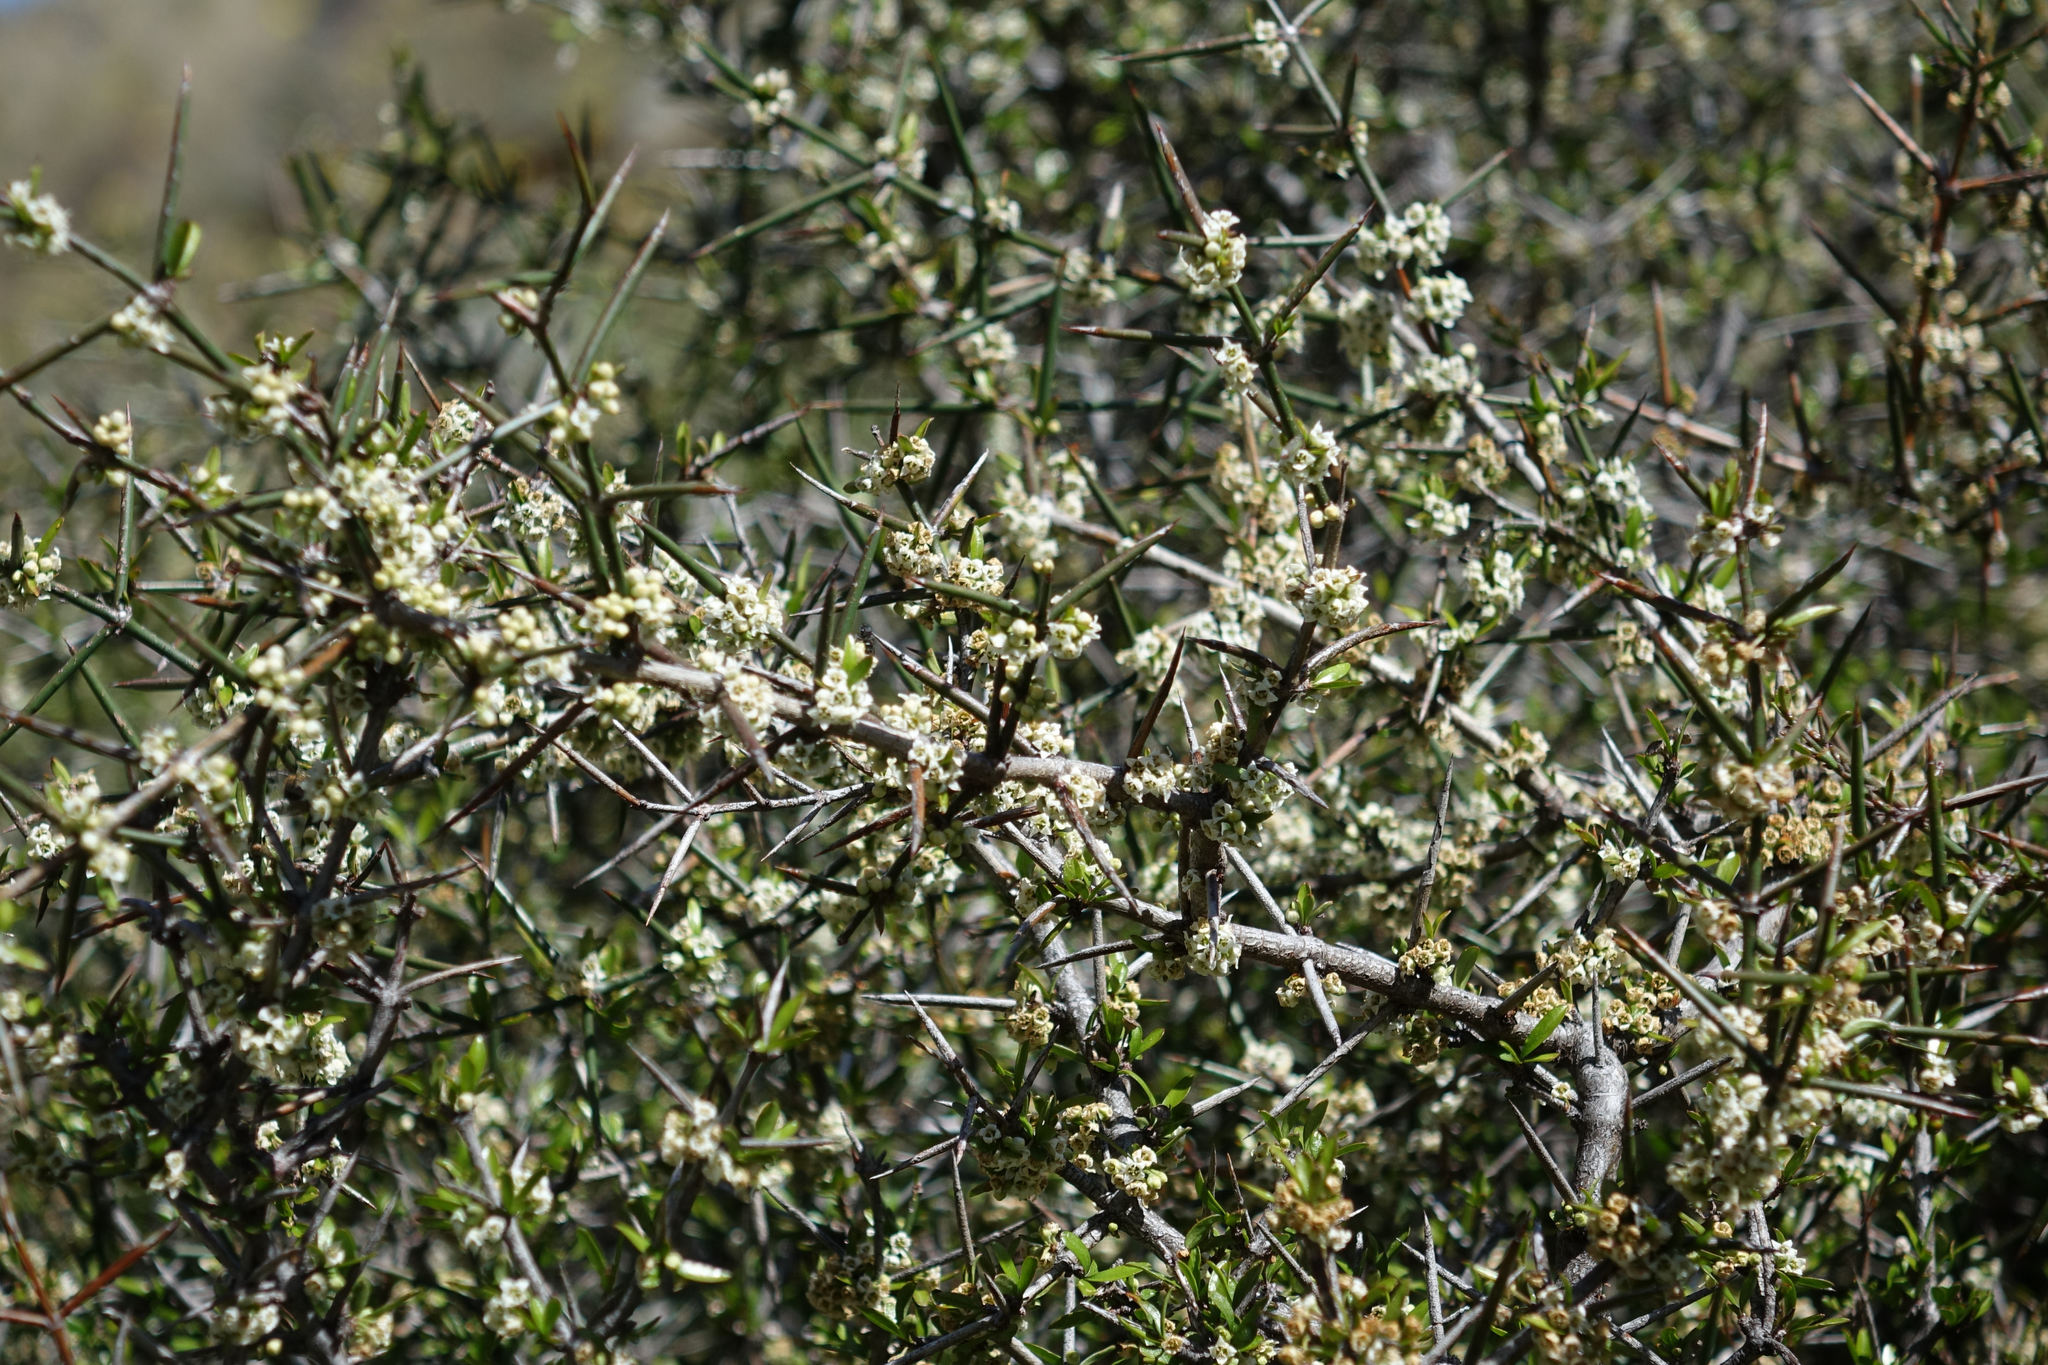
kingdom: Plantae
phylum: Tracheophyta
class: Magnoliopsida
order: Rosales
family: Rhamnaceae
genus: Discaria
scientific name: Discaria toumatou
